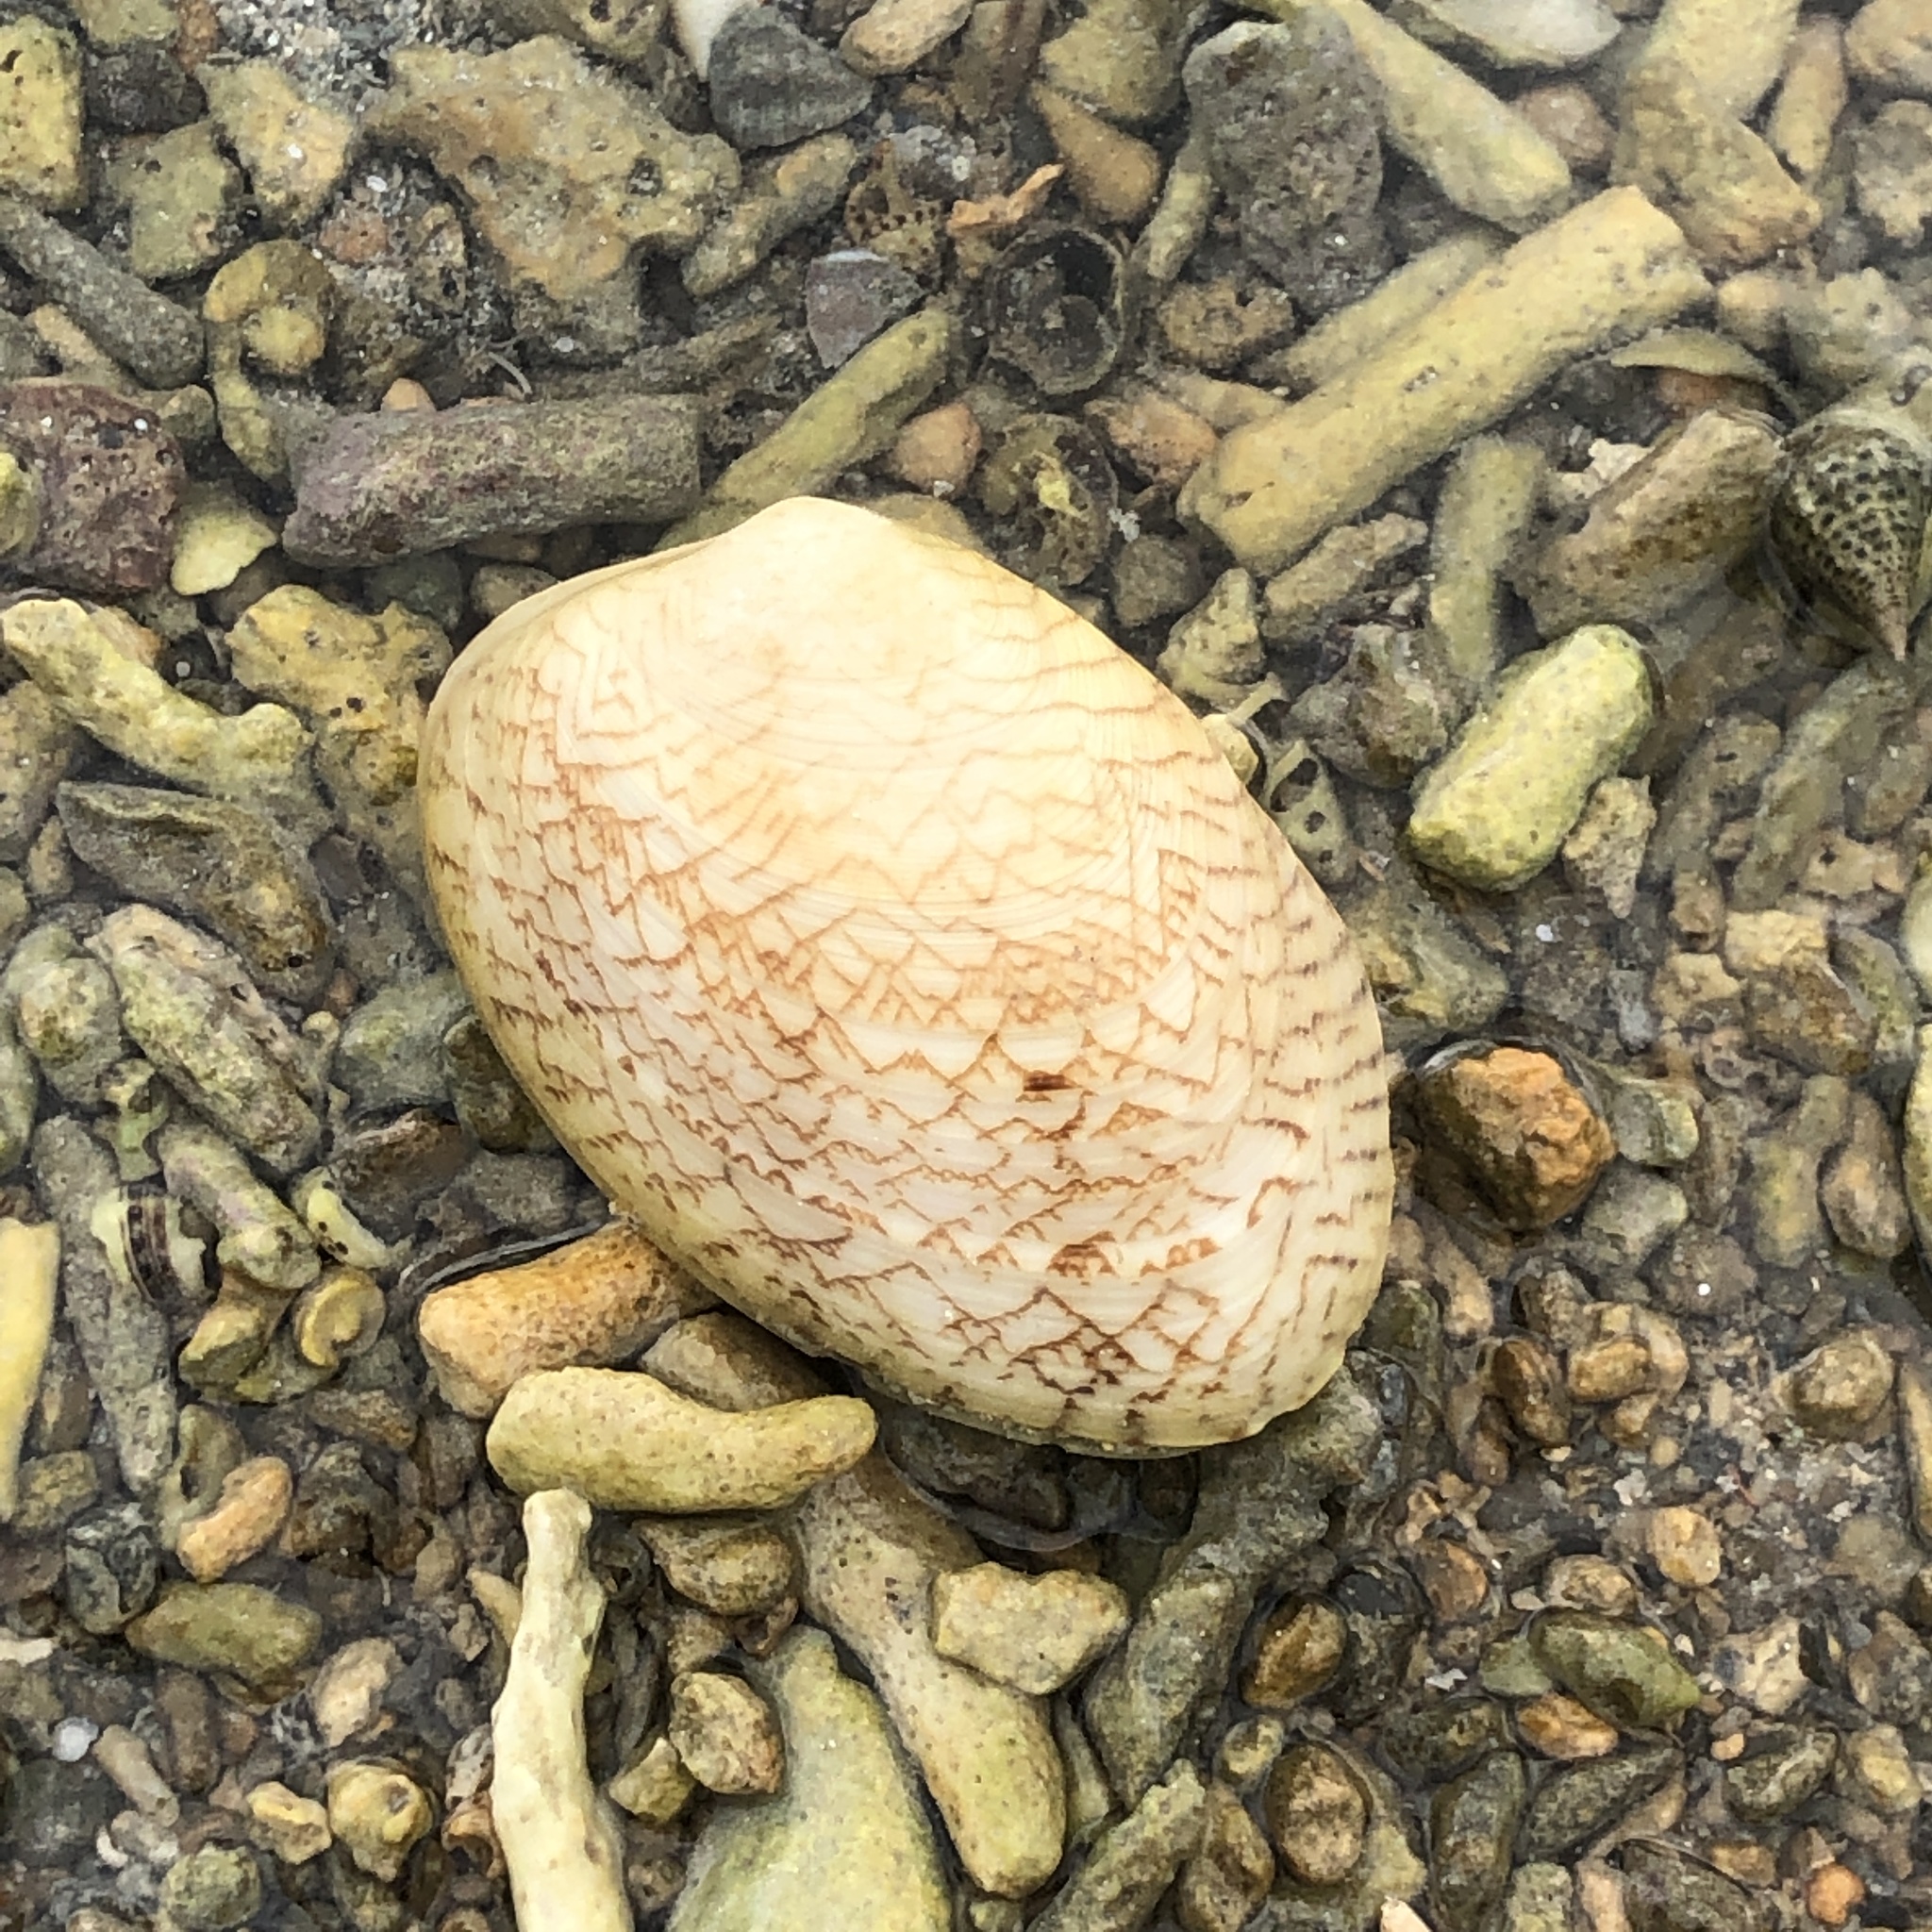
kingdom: Animalia
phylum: Mollusca
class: Bivalvia
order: Venerida
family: Veneridae
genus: Tapes
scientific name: Tapes literatus
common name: Lettered carpet shell
